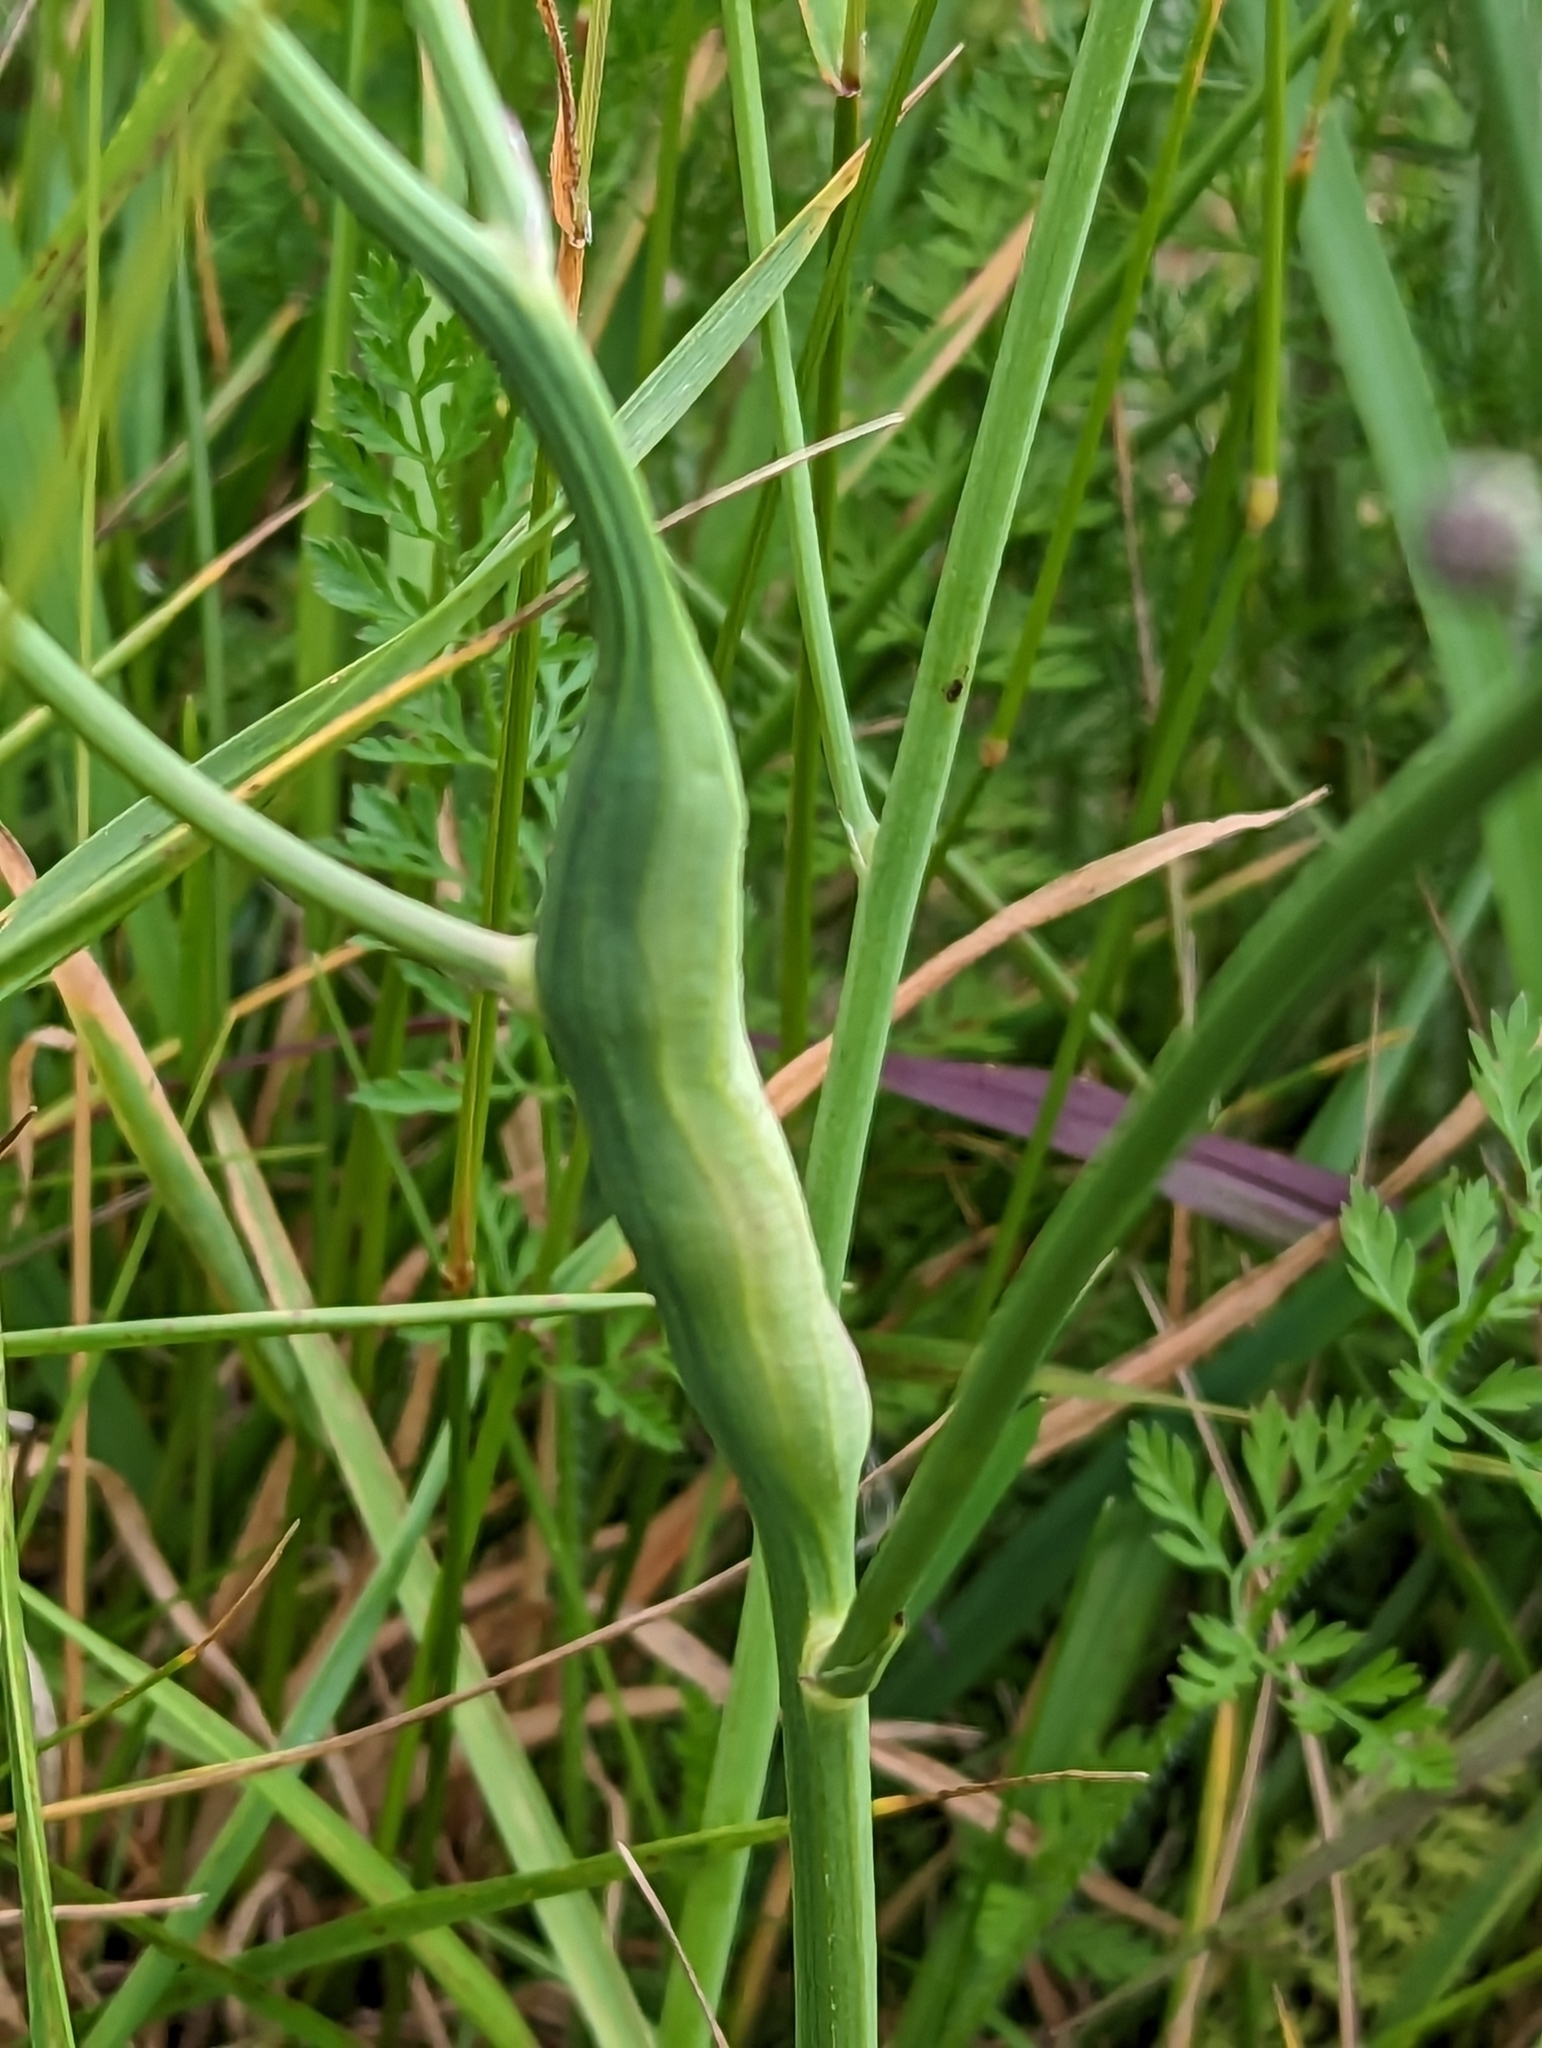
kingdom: Animalia
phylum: Arthropoda
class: Insecta
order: Hymenoptera
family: Cynipidae
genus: Phanacis
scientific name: Phanacis hypochoeridis
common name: Gall wasp
